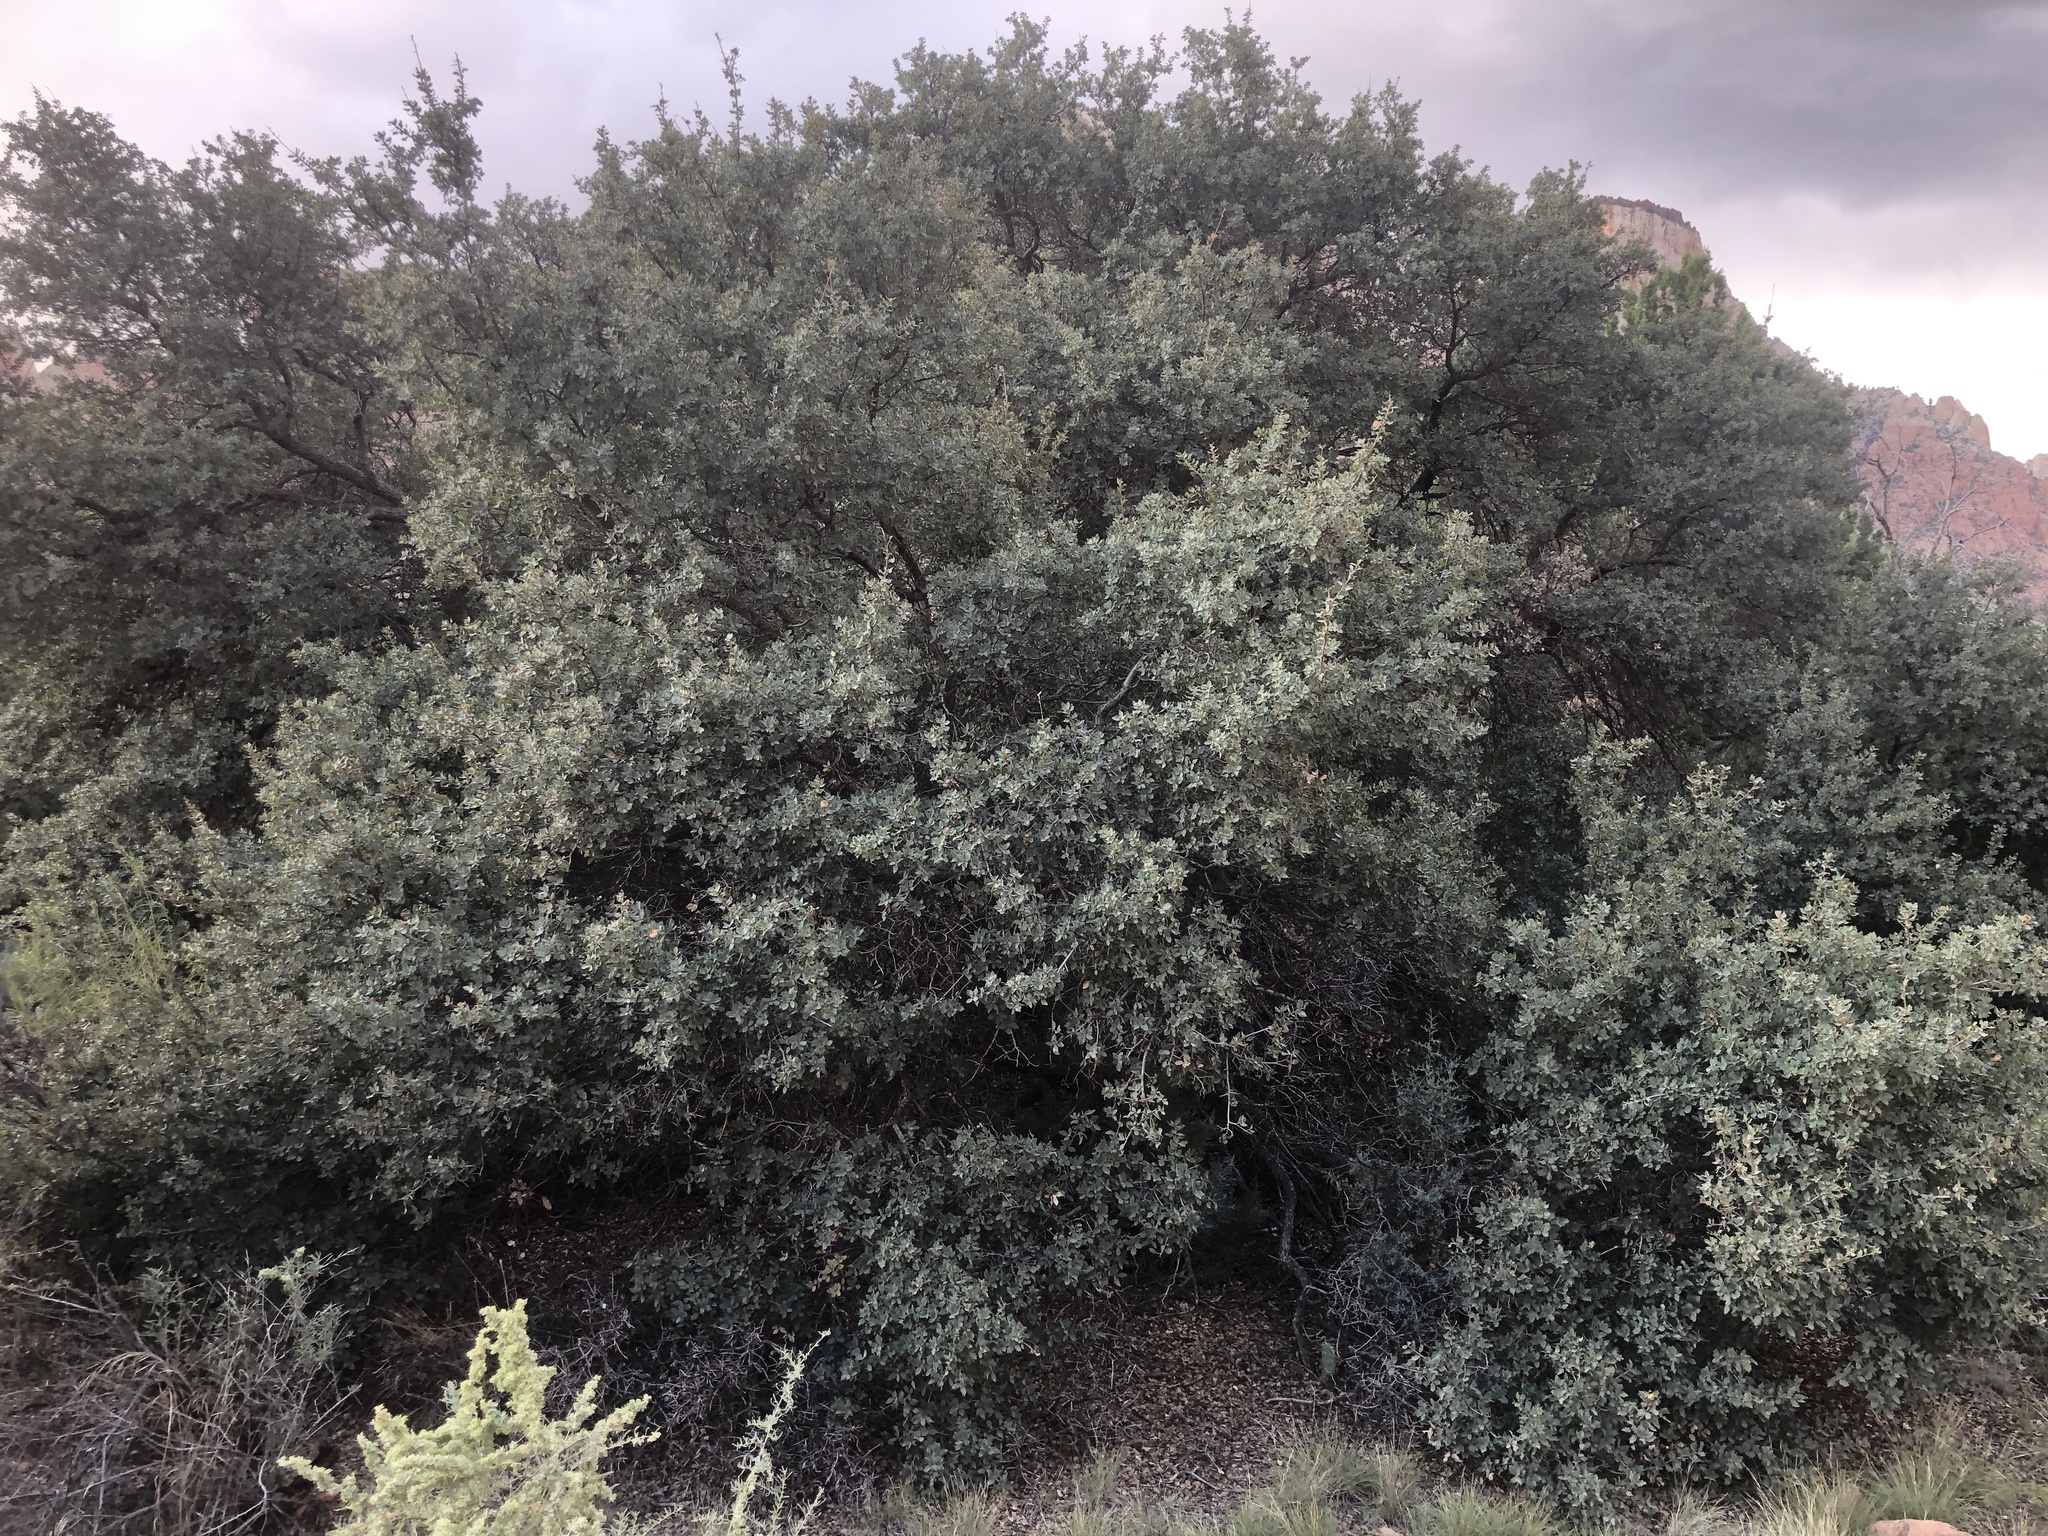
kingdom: Plantae
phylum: Tracheophyta
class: Magnoliopsida
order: Fagales
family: Fagaceae
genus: Quercus
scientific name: Quercus turbinella
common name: Sonoran scrub oak
